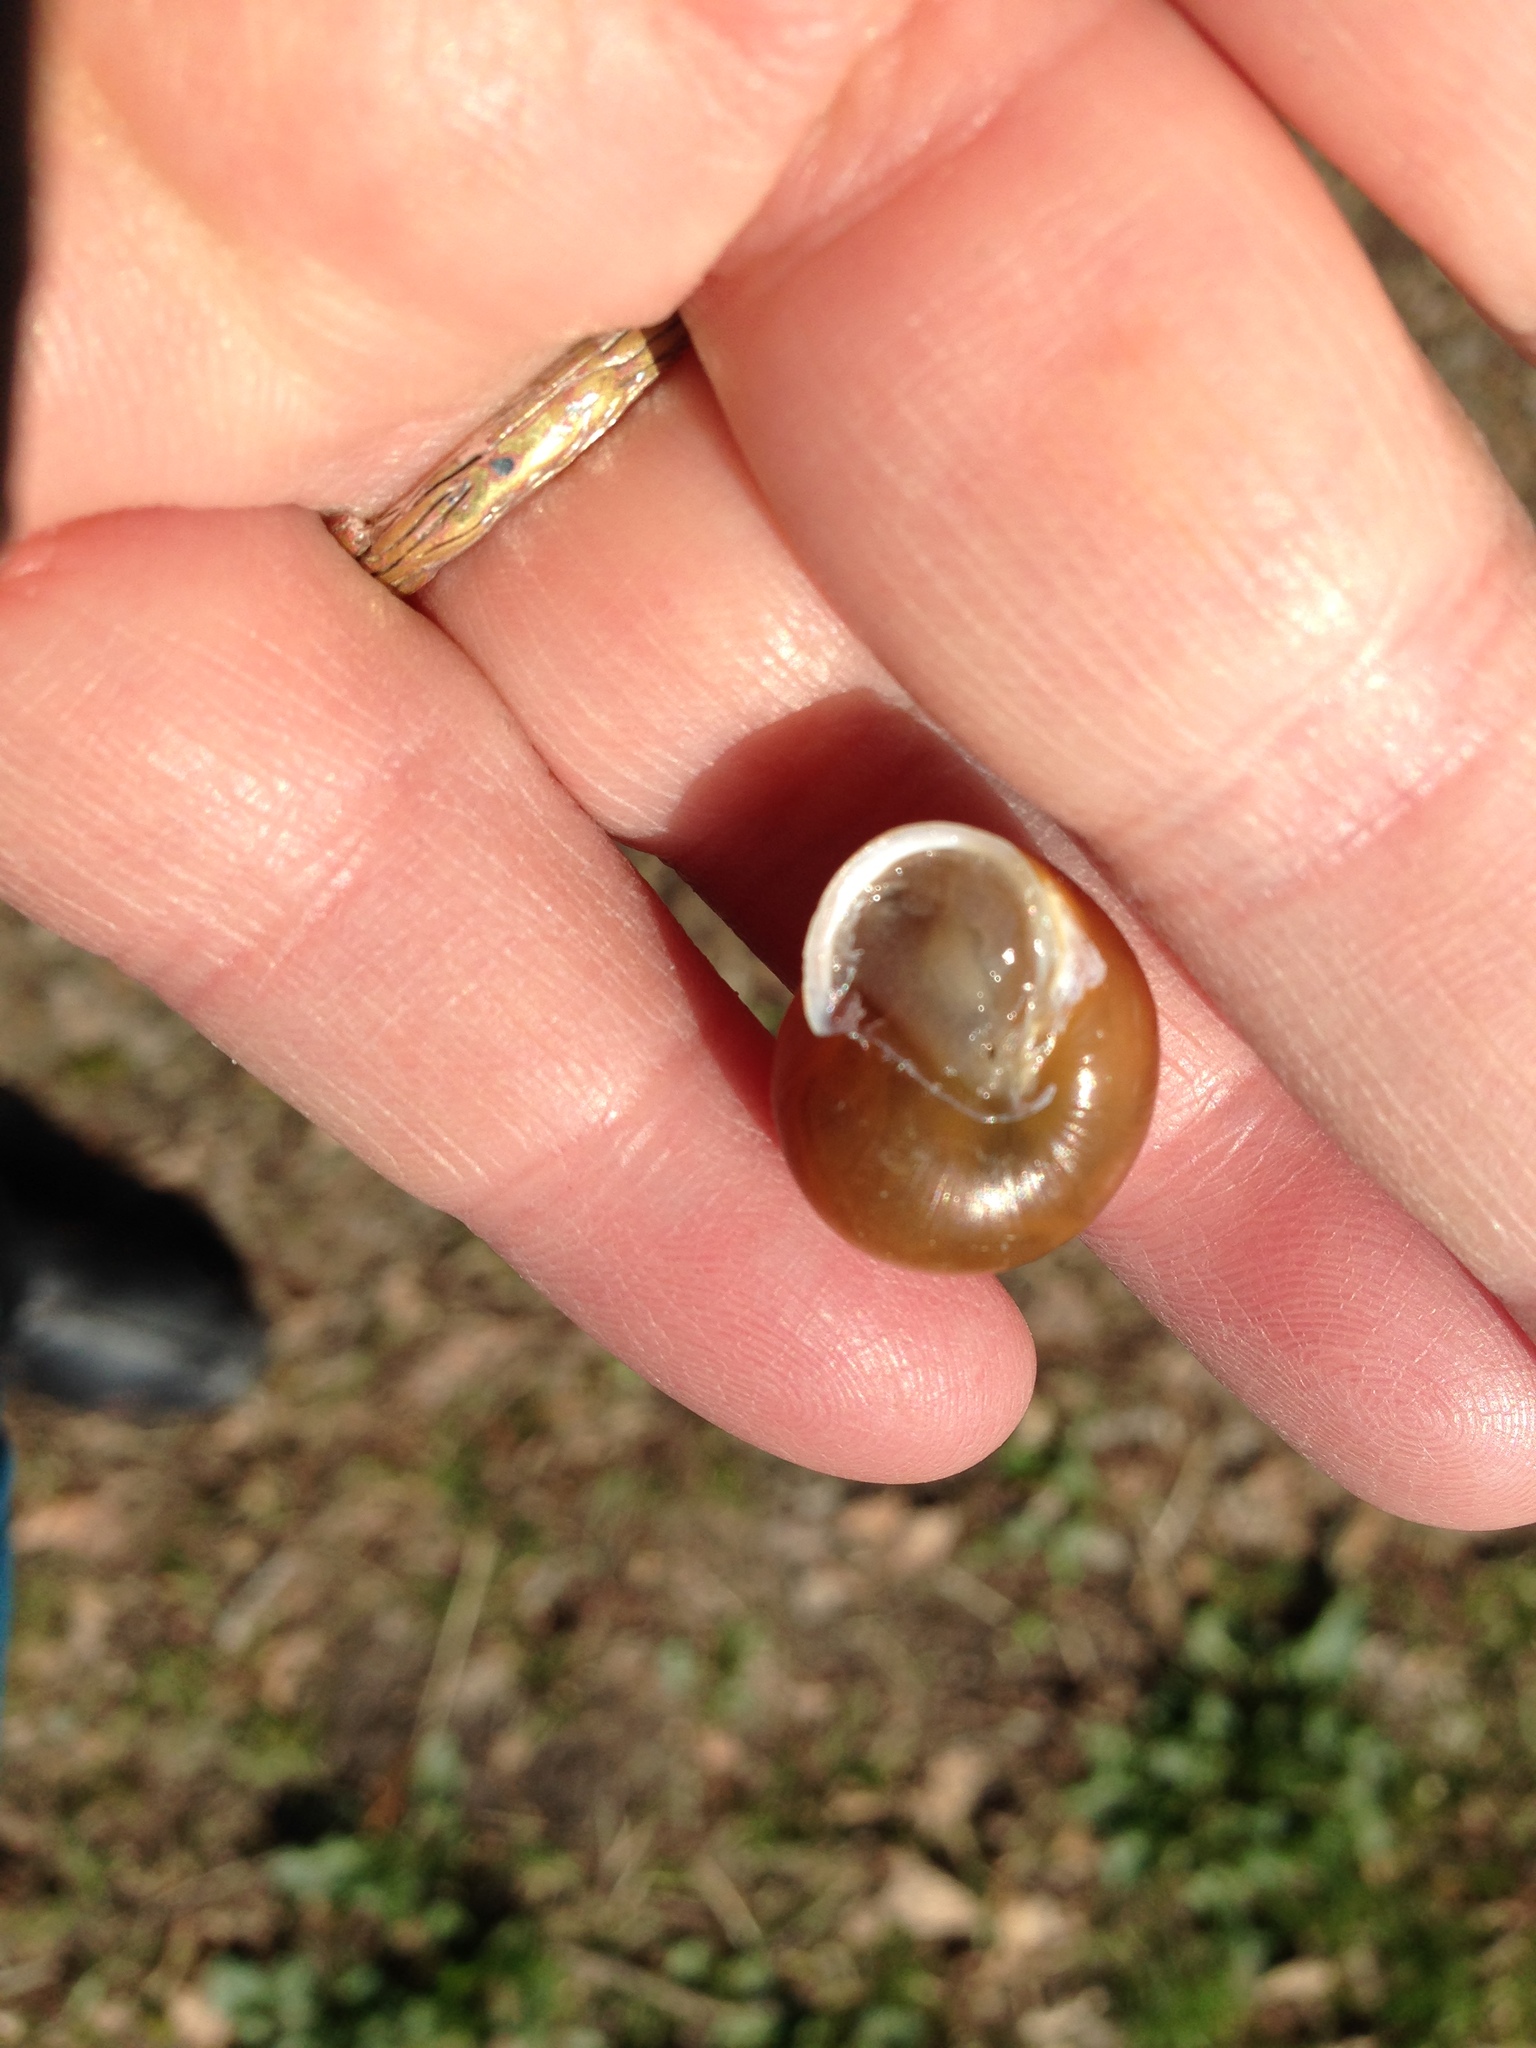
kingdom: Animalia
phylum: Mollusca
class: Gastropoda
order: Stylommatophora
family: Helicidae
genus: Cepaea
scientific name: Cepaea hortensis
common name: White-lip gardensnail
